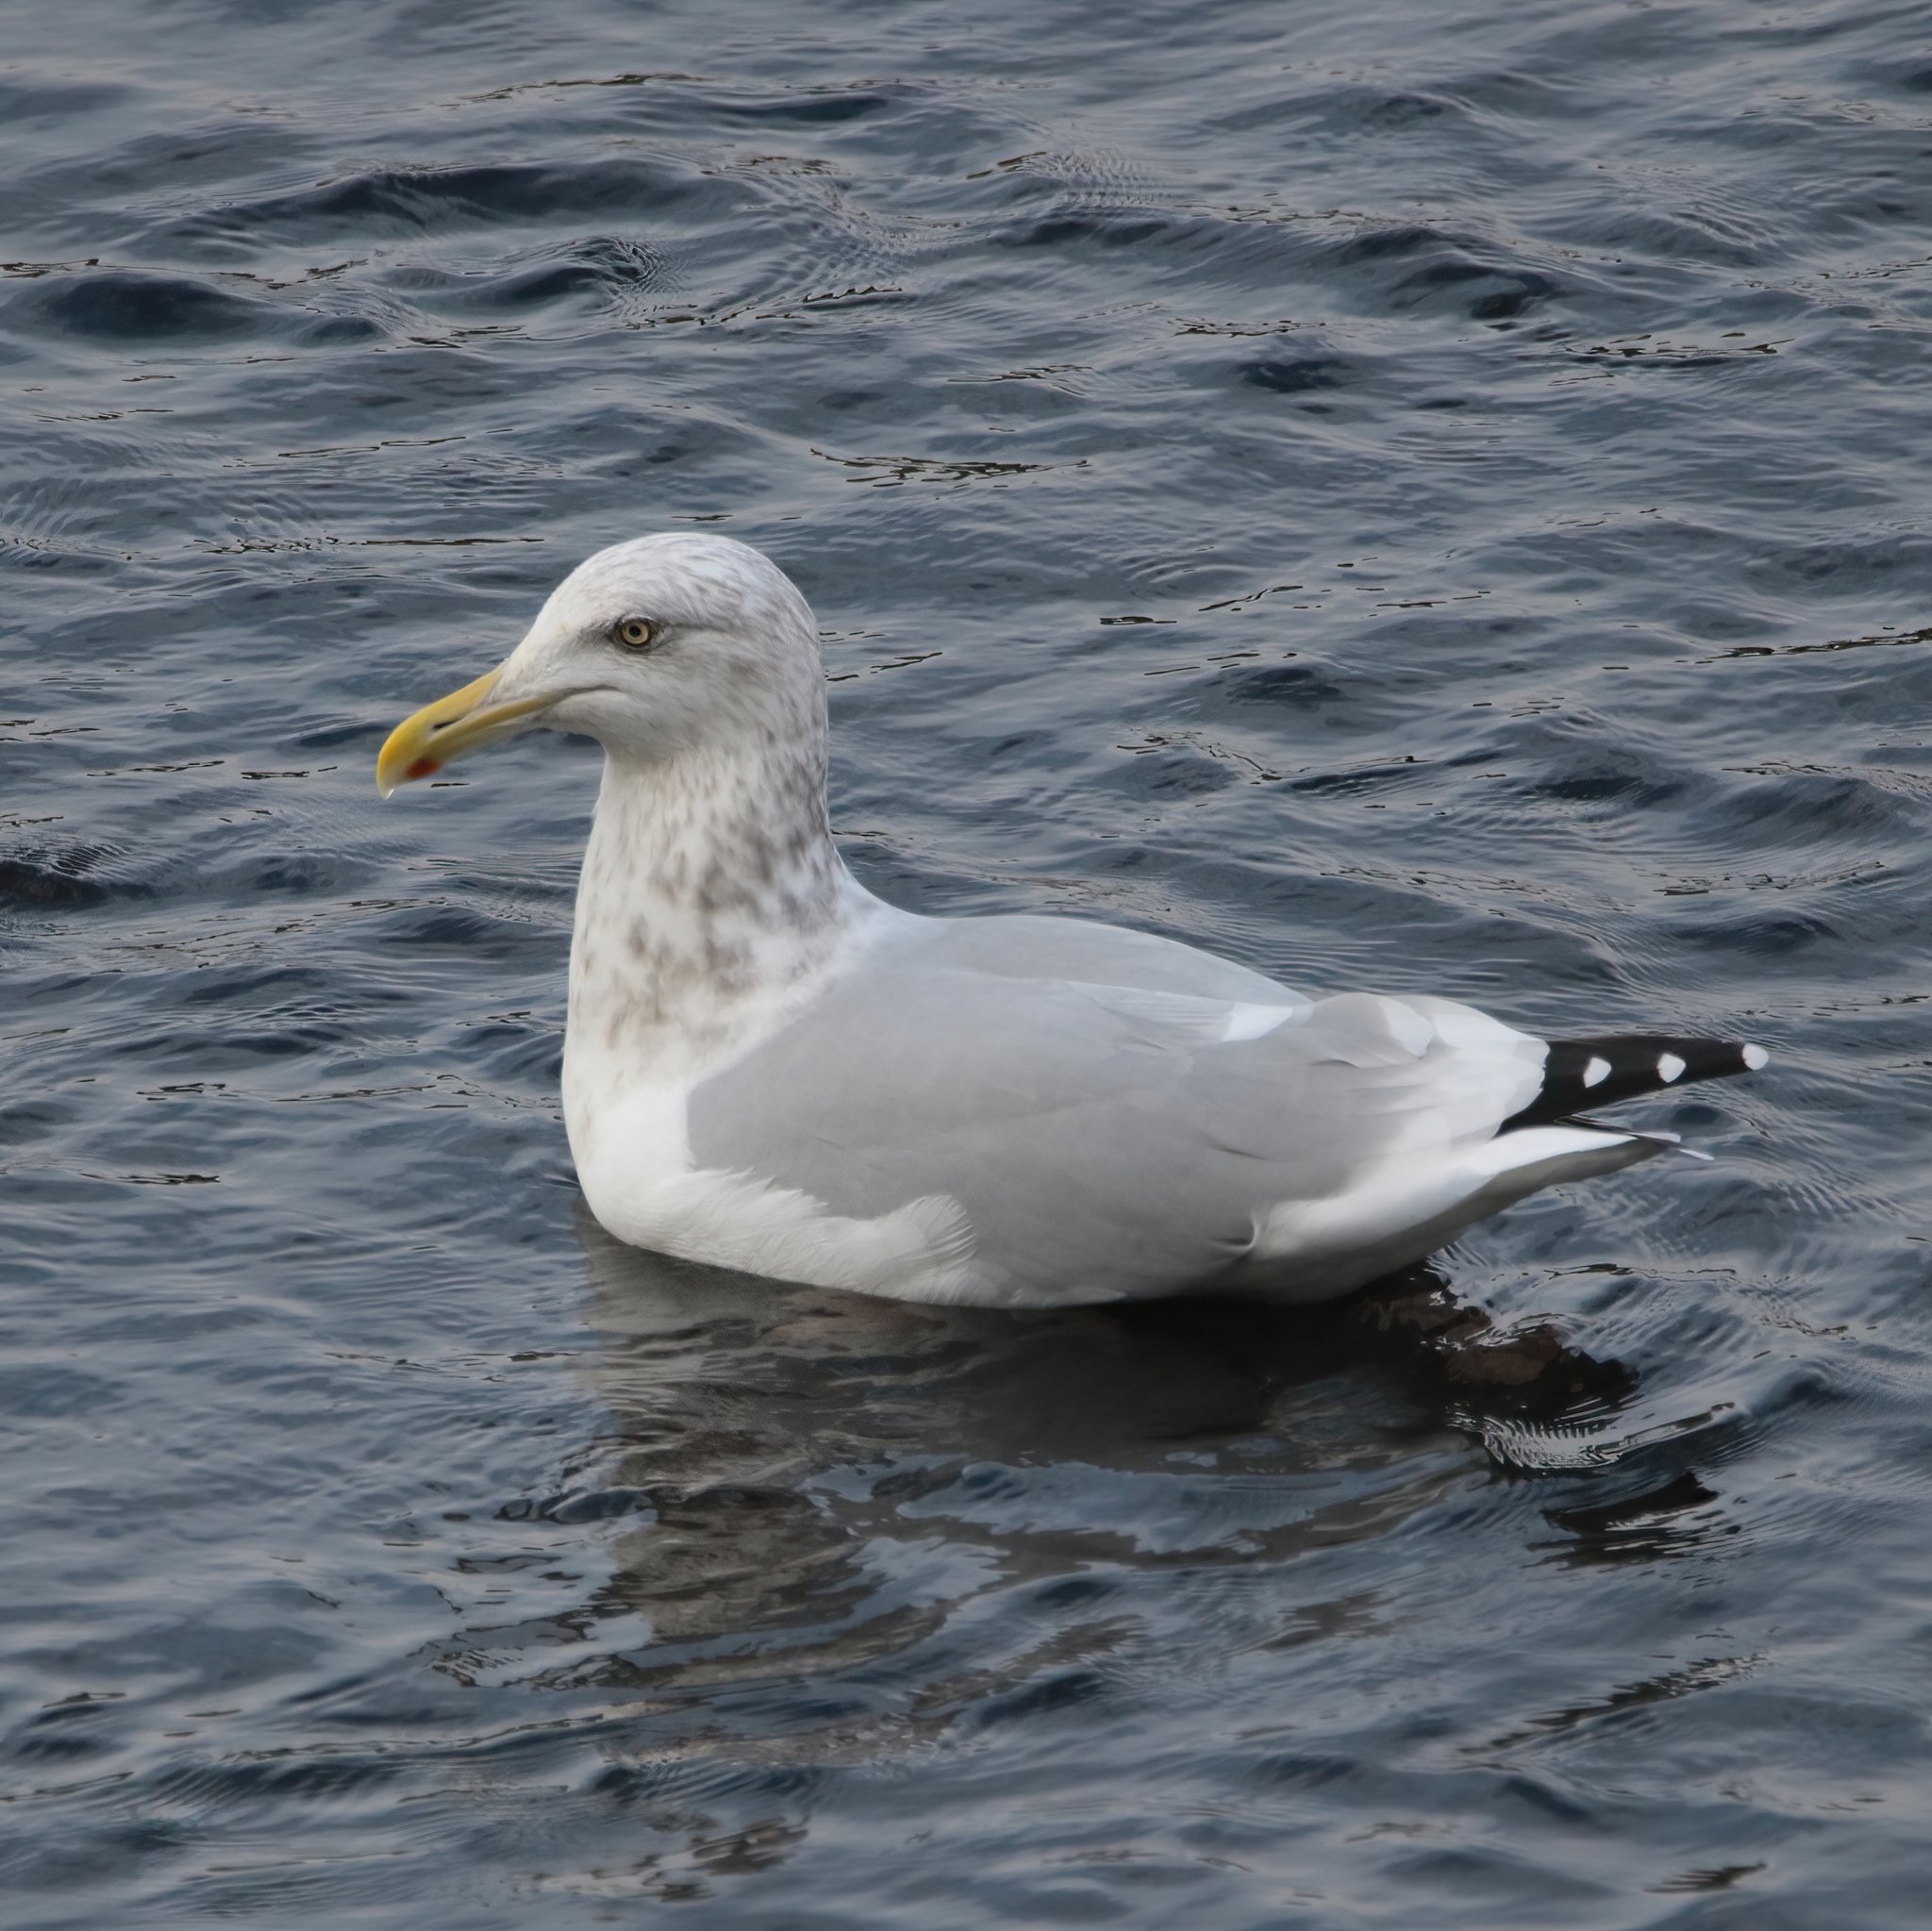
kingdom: Animalia
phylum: Chordata
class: Aves
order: Charadriiformes
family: Laridae
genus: Larus
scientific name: Larus argentatus
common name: Herring gull
